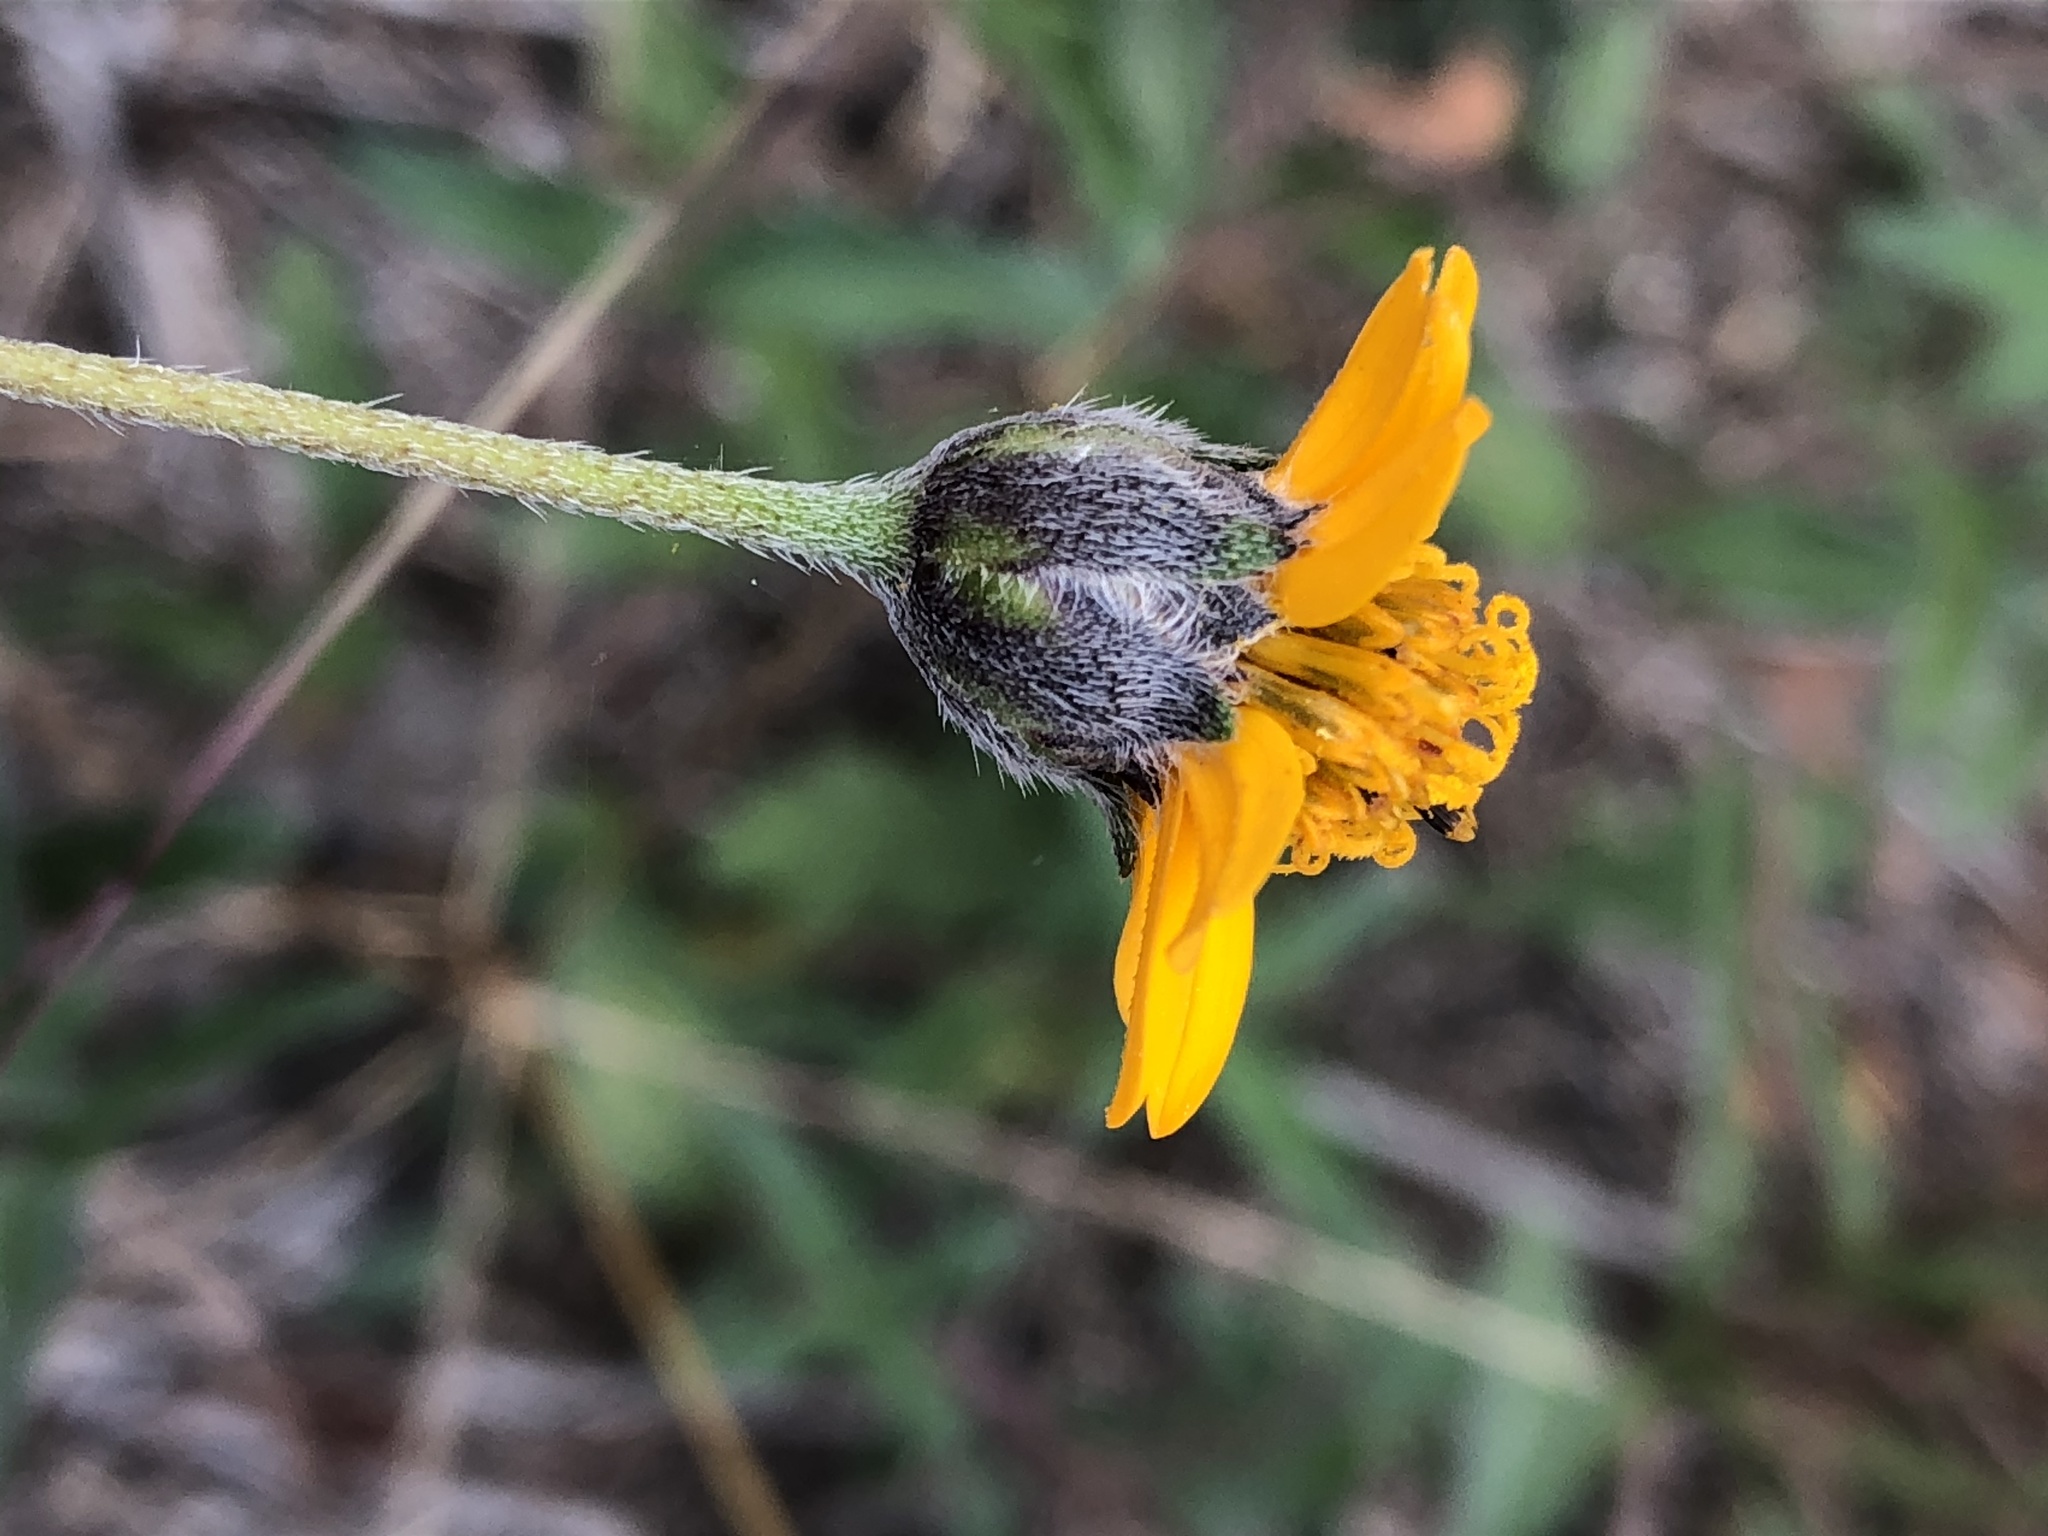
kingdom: Plantae
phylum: Tracheophyta
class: Magnoliopsida
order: Asterales
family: Asteraceae
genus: Wedelia
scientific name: Wedelia acapulcensis
